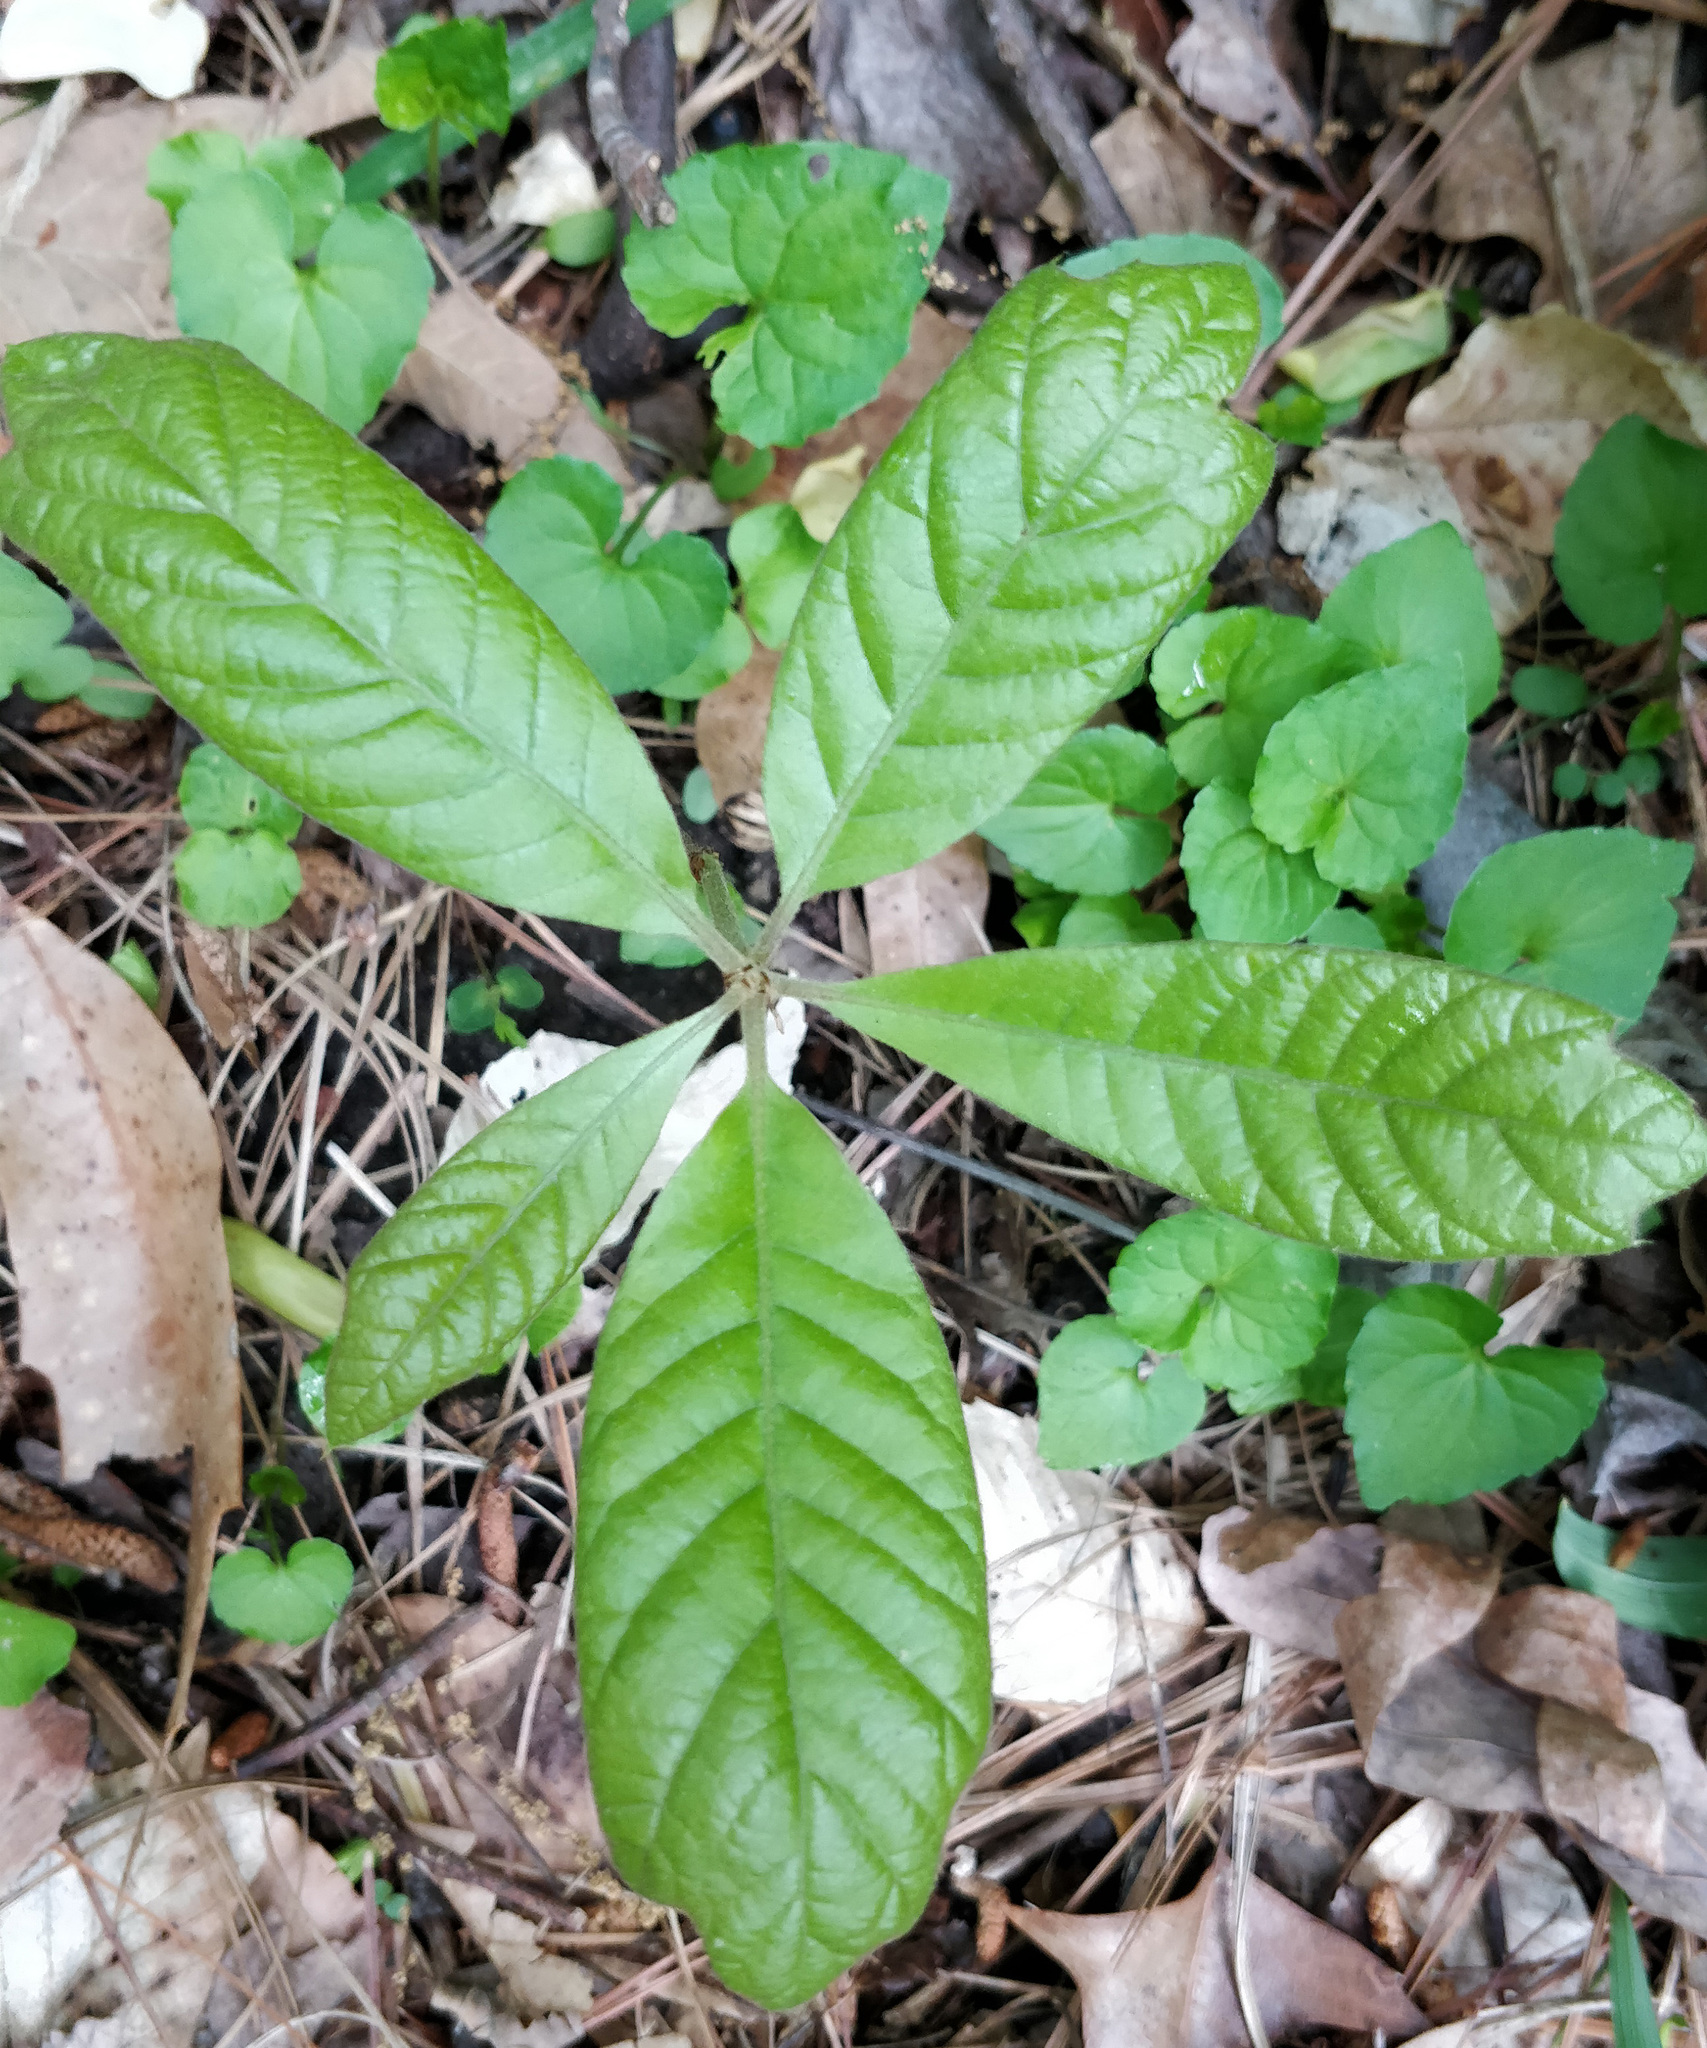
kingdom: Plantae
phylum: Tracheophyta
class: Magnoliopsida
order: Fagales
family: Fagaceae
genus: Quercus
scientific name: Quercus falcata
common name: Southern red oak
